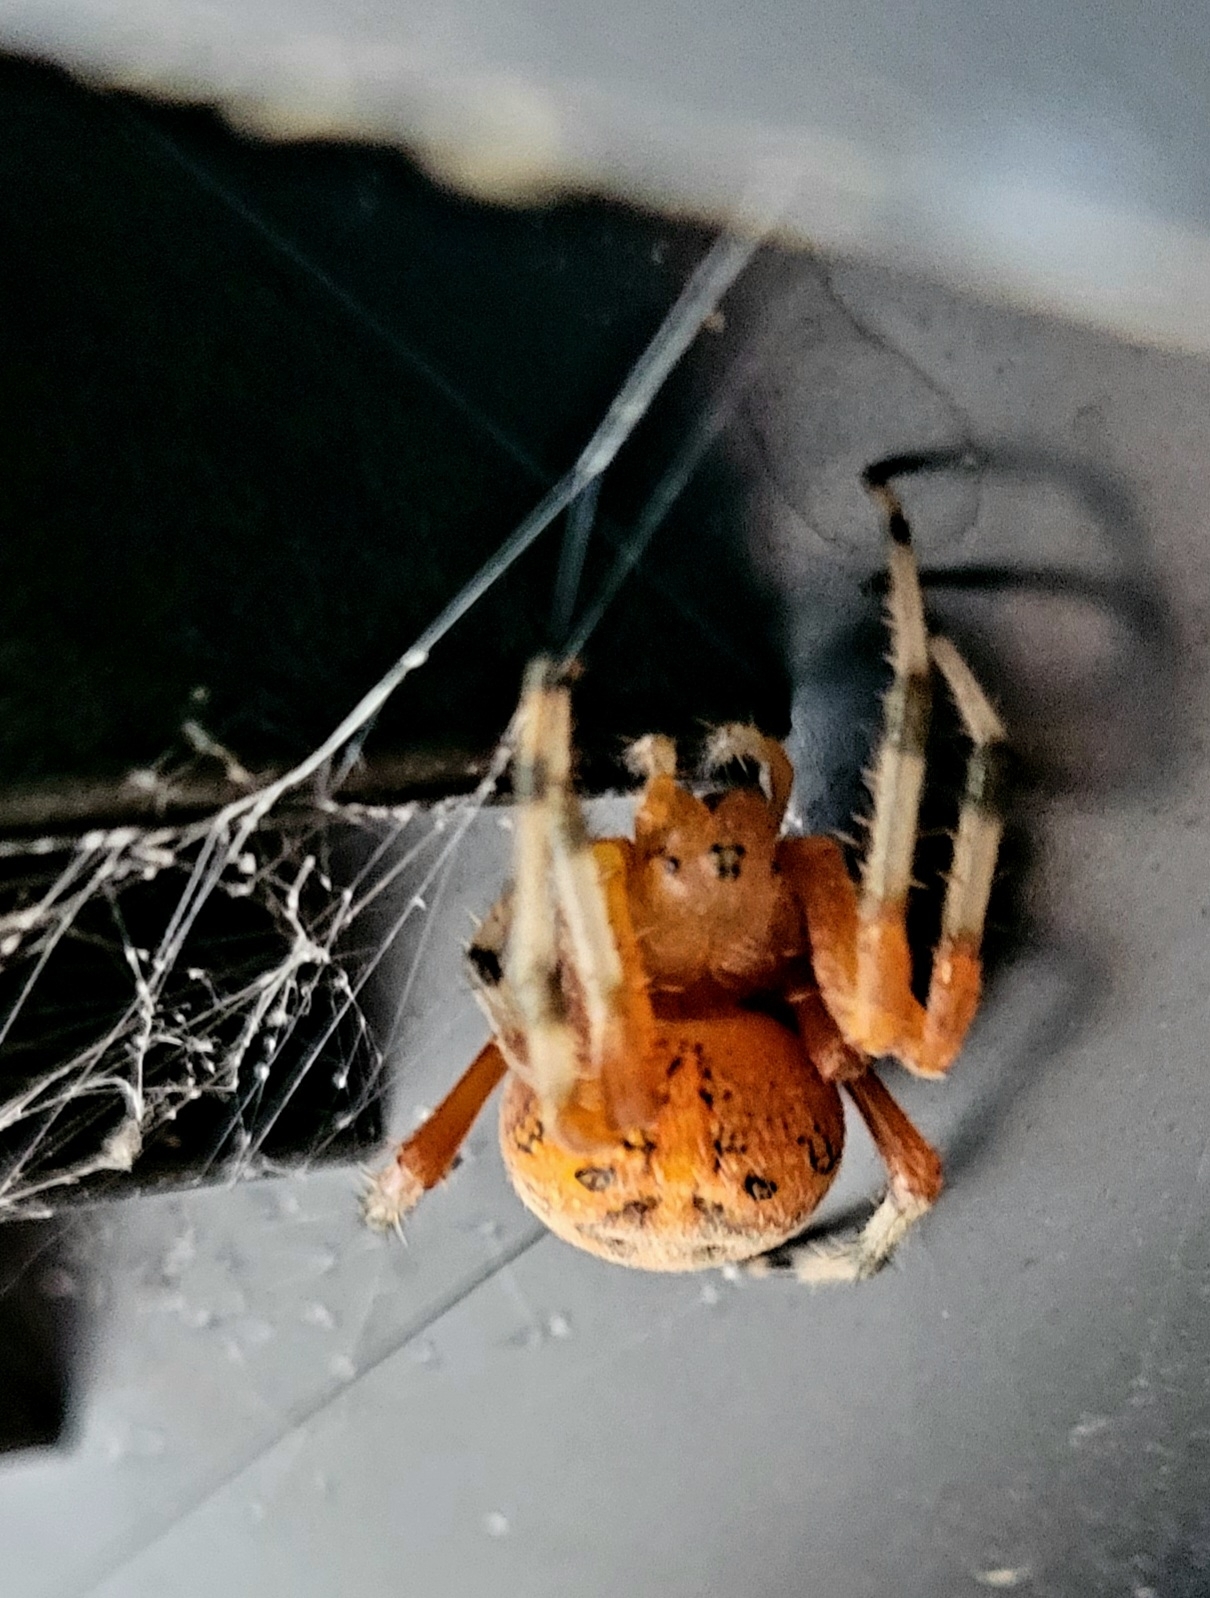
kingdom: Animalia
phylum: Arthropoda
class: Arachnida
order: Araneae
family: Araneidae
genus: Araneus
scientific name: Araneus marmoreus
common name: Marbled orbweaver
